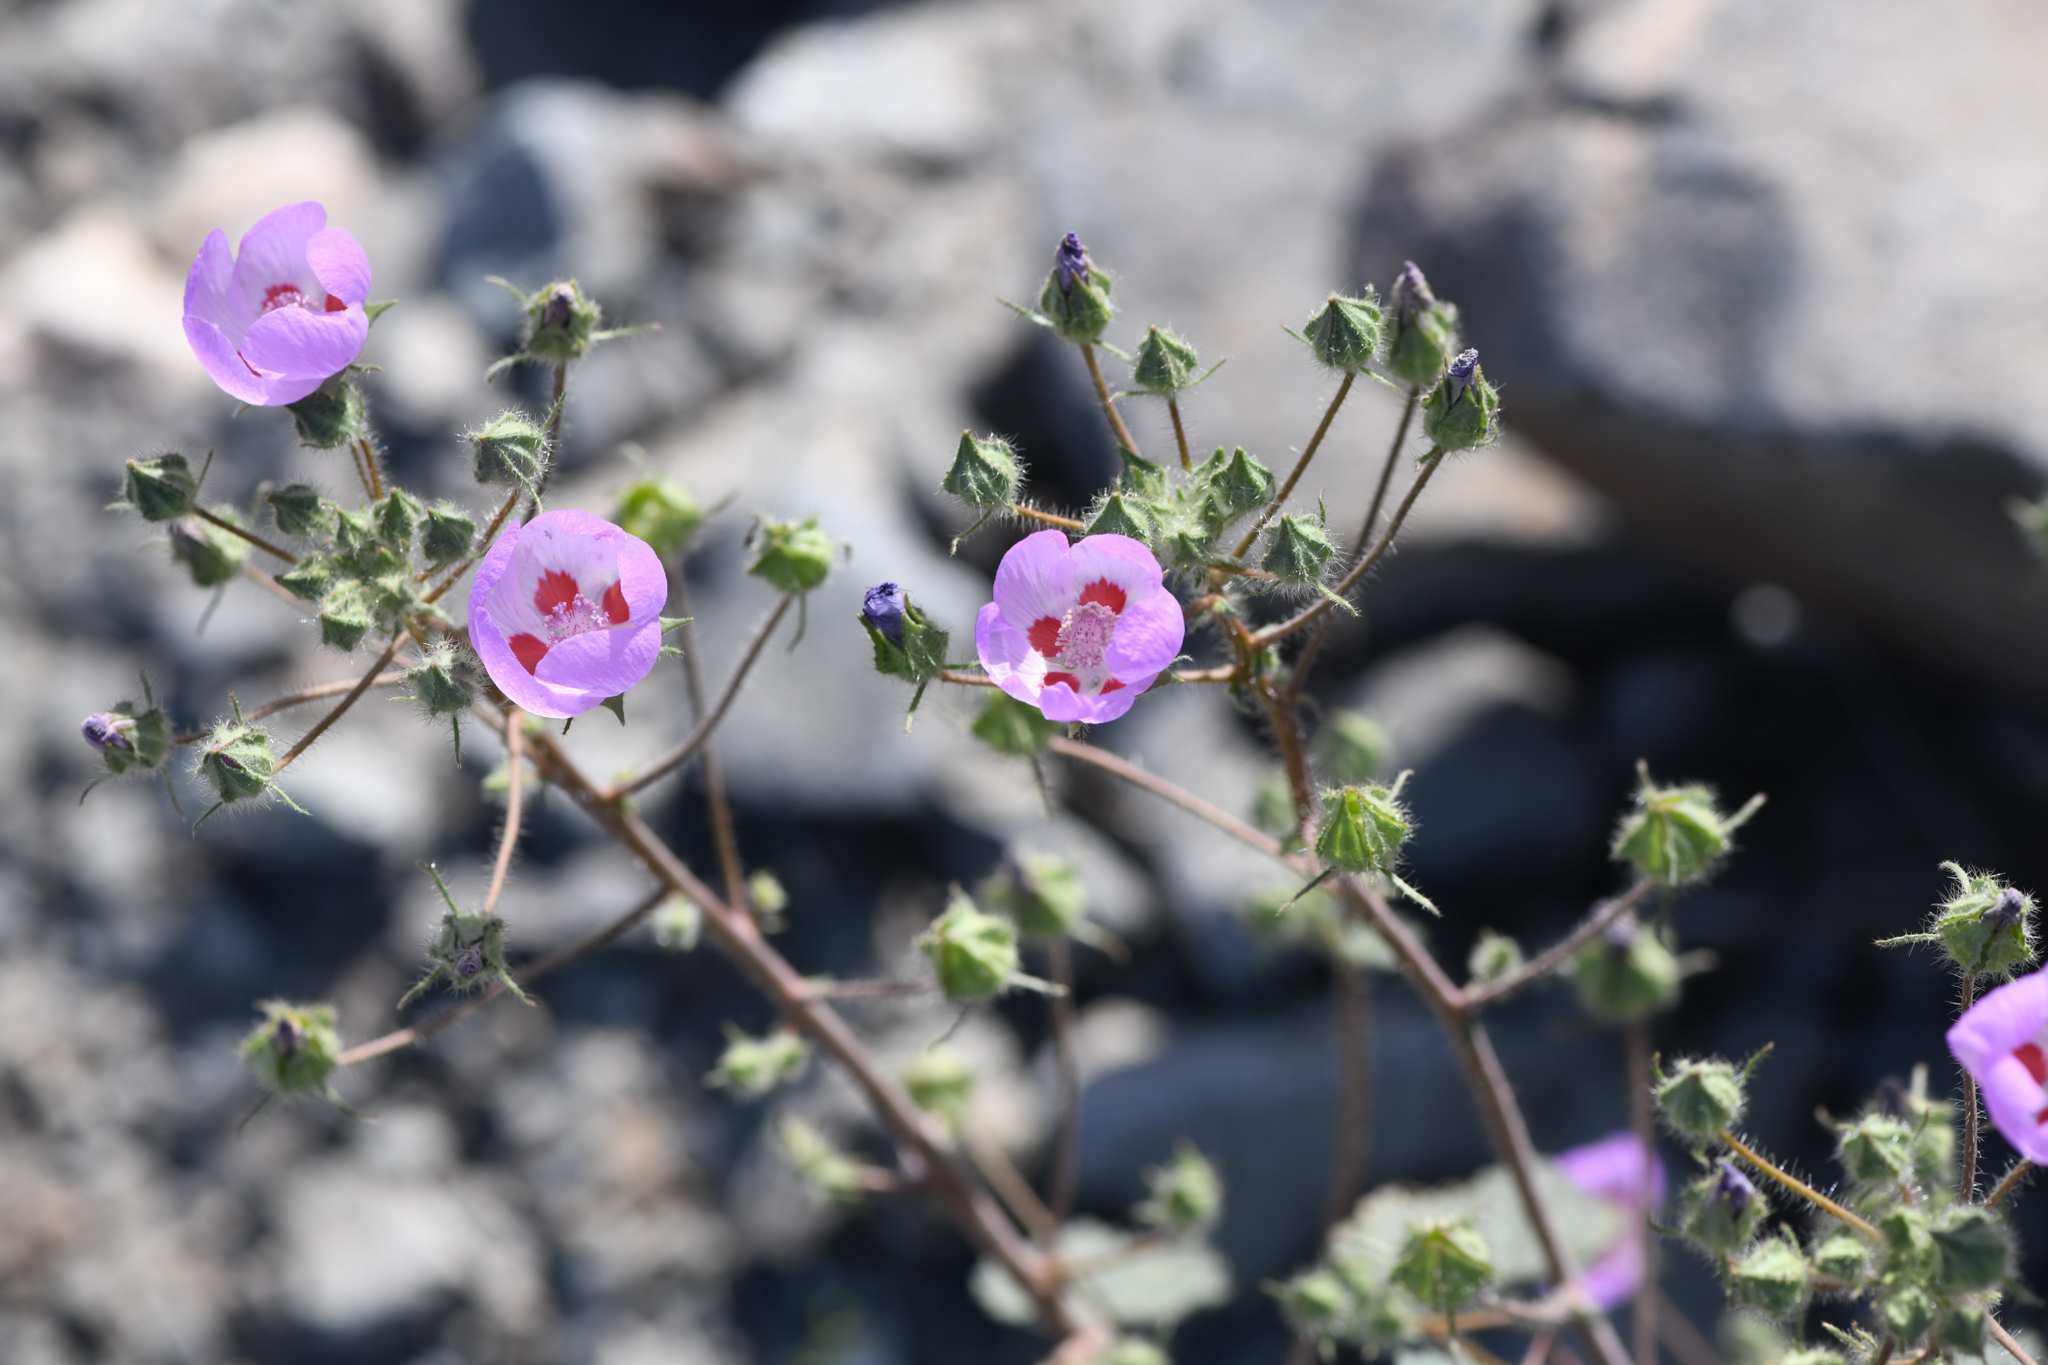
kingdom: Plantae
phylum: Tracheophyta
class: Magnoliopsida
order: Malvales
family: Malvaceae
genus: Eremalche
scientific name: Eremalche rotundifolia
